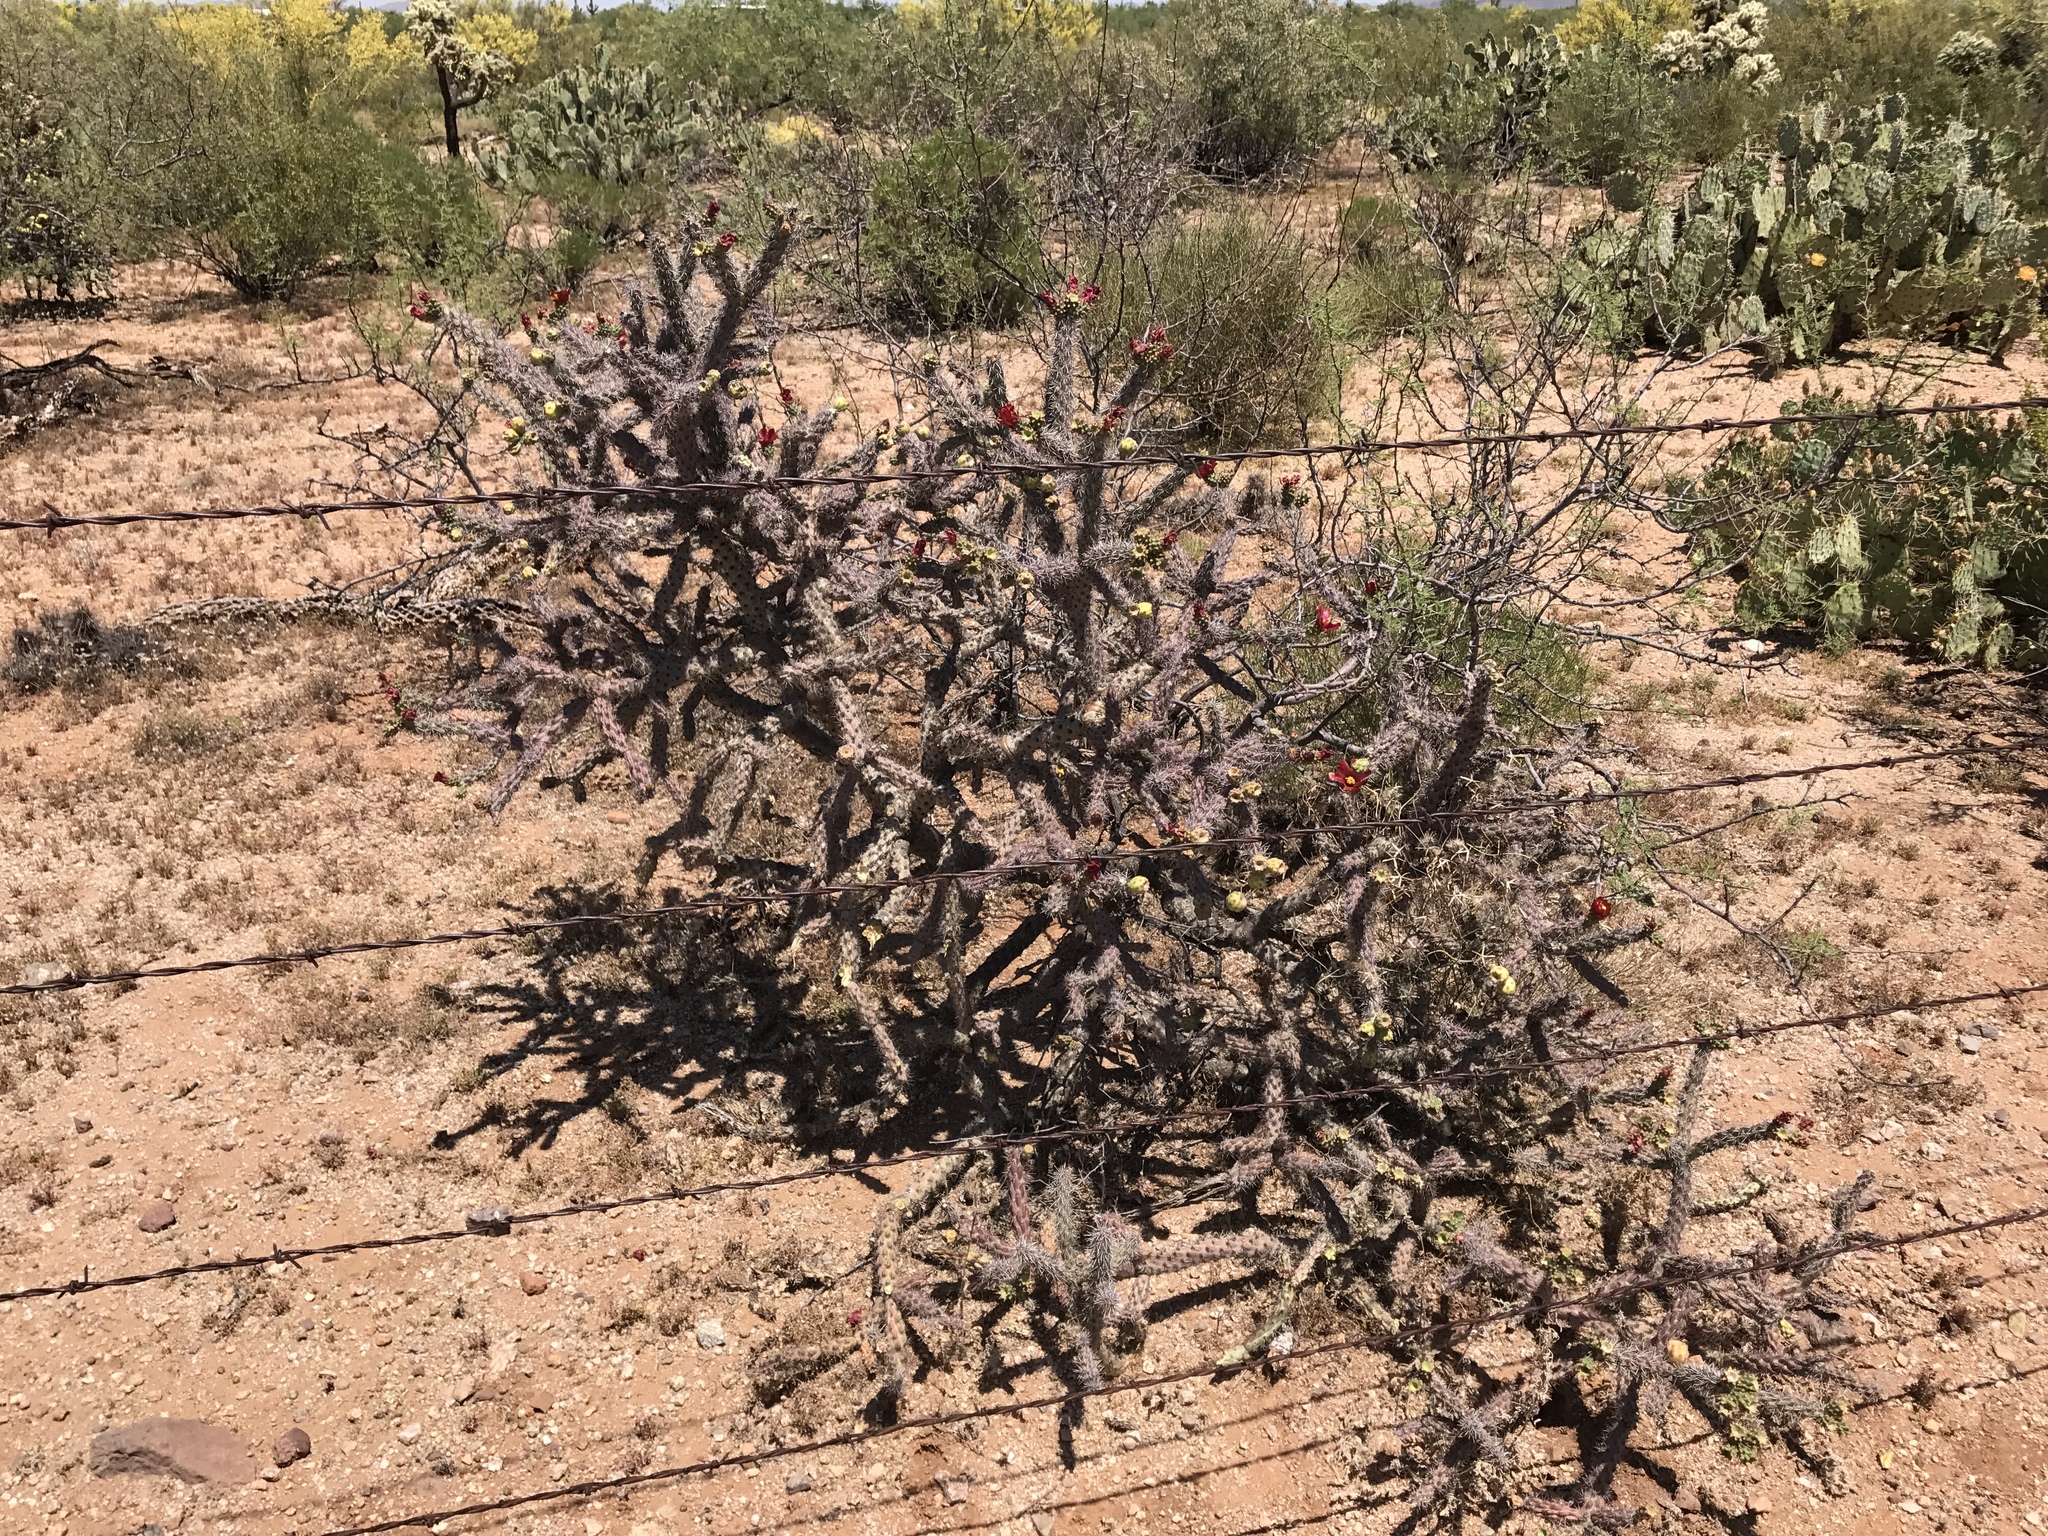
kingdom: Plantae
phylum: Tracheophyta
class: Magnoliopsida
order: Caryophyllales
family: Cactaceae
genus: Cylindropuntia
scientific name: Cylindropuntia thurberi
